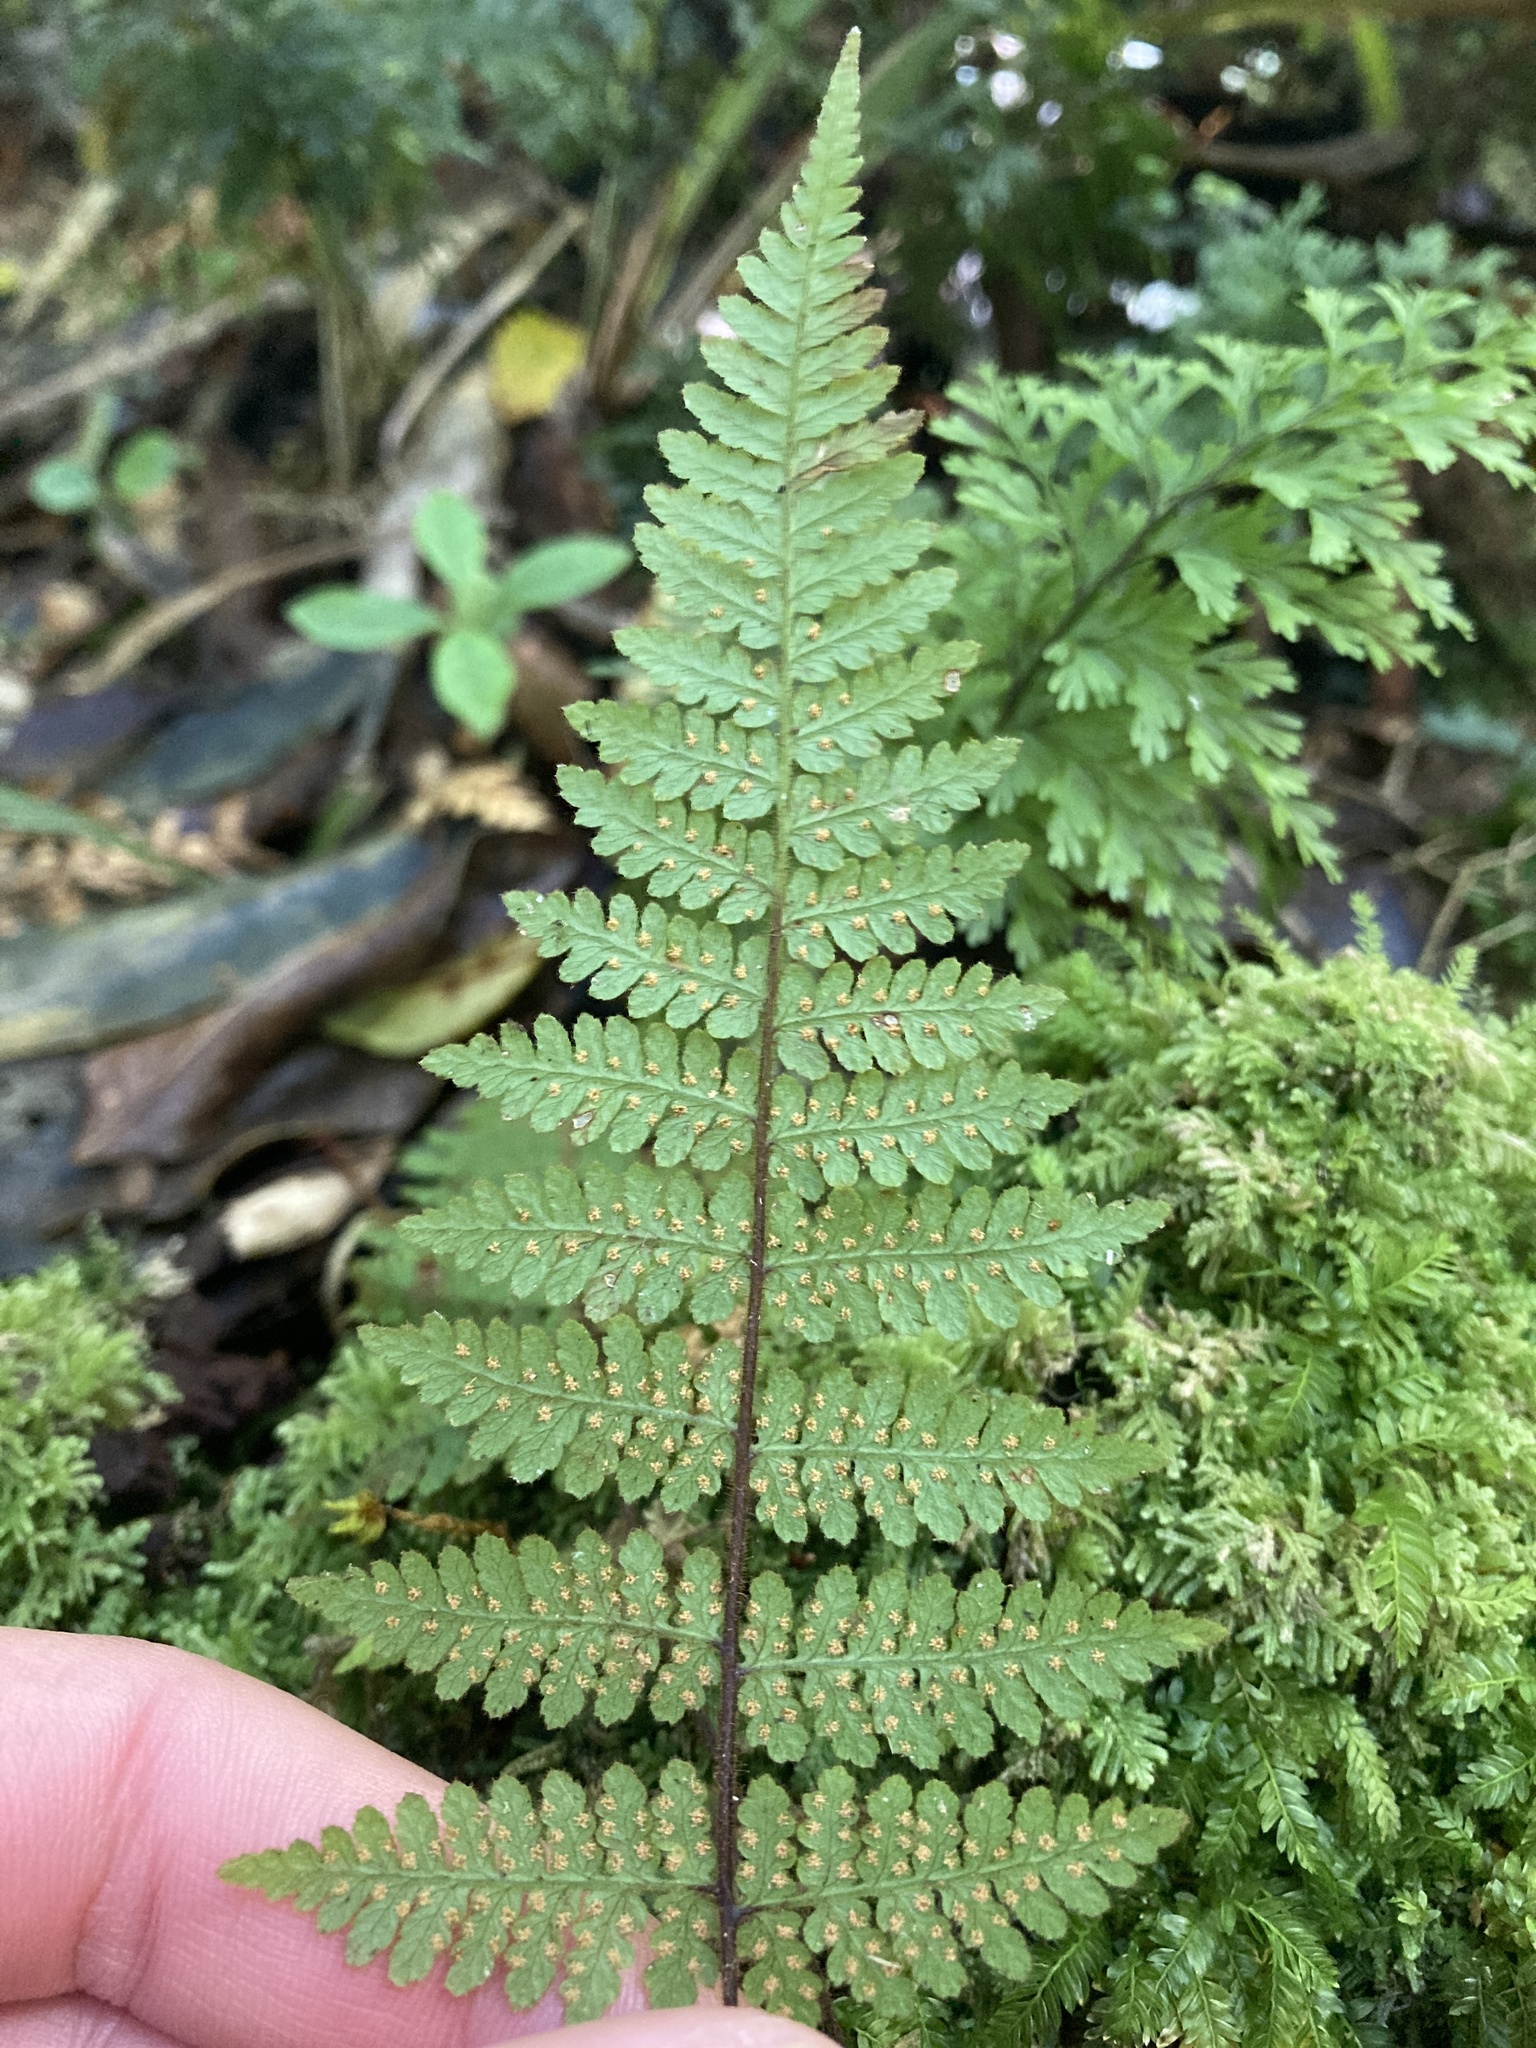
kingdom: Plantae
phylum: Tracheophyta
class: Polypodiopsida
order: Polypodiales
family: Dennstaedtiaceae
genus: Hypolepis
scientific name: Hypolepis rugosula
